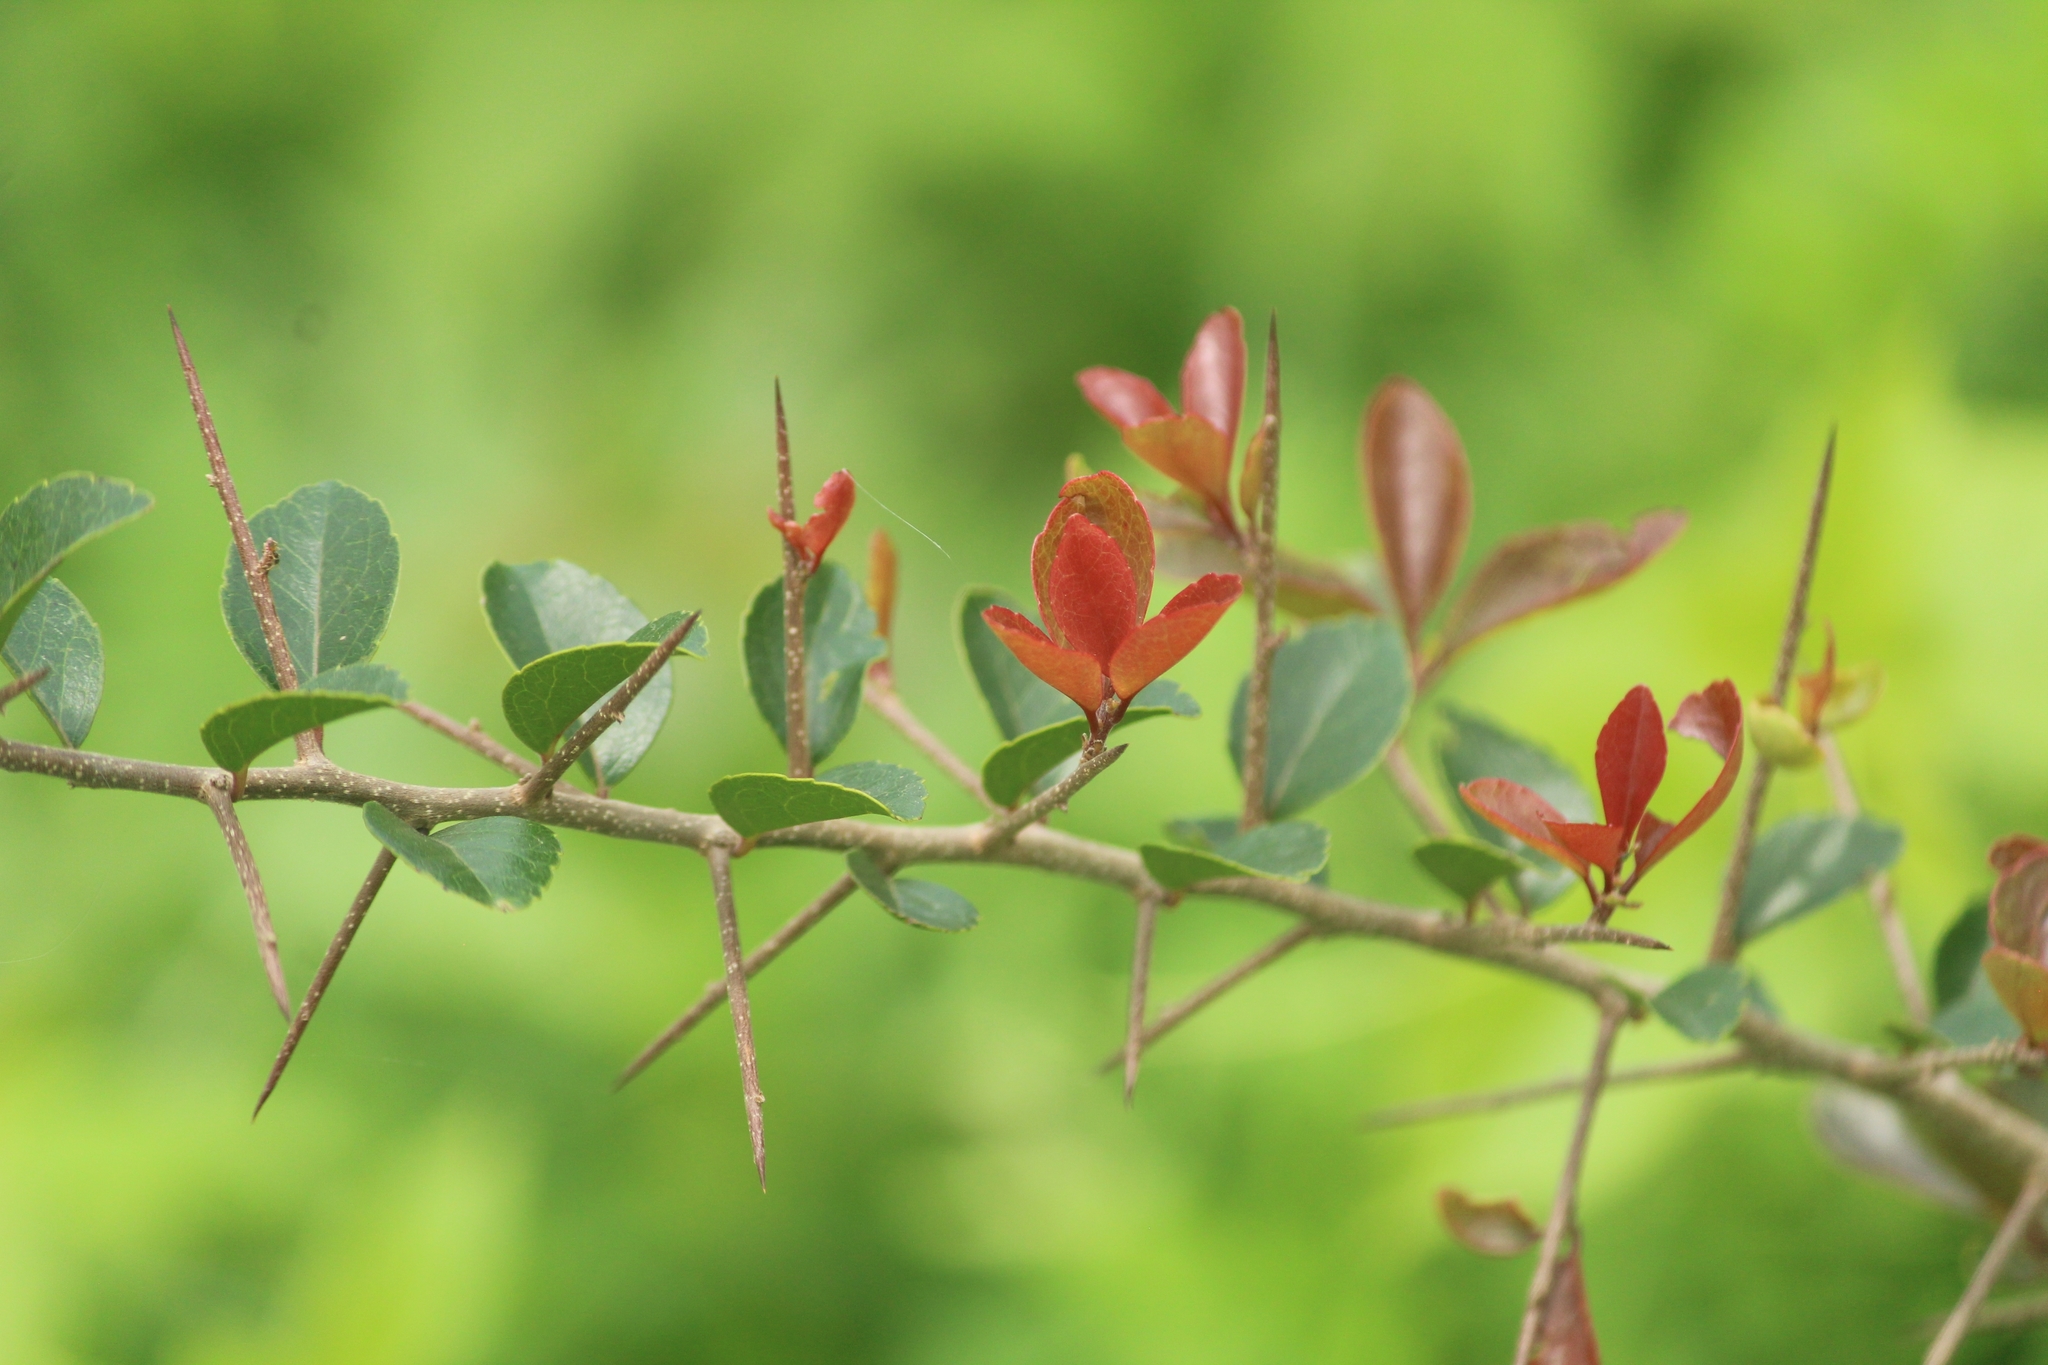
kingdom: Plantae
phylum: Tracheophyta
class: Magnoliopsida
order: Malpighiales
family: Salicaceae
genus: Flacourtia
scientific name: Flacourtia indica
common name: Governor's plum
